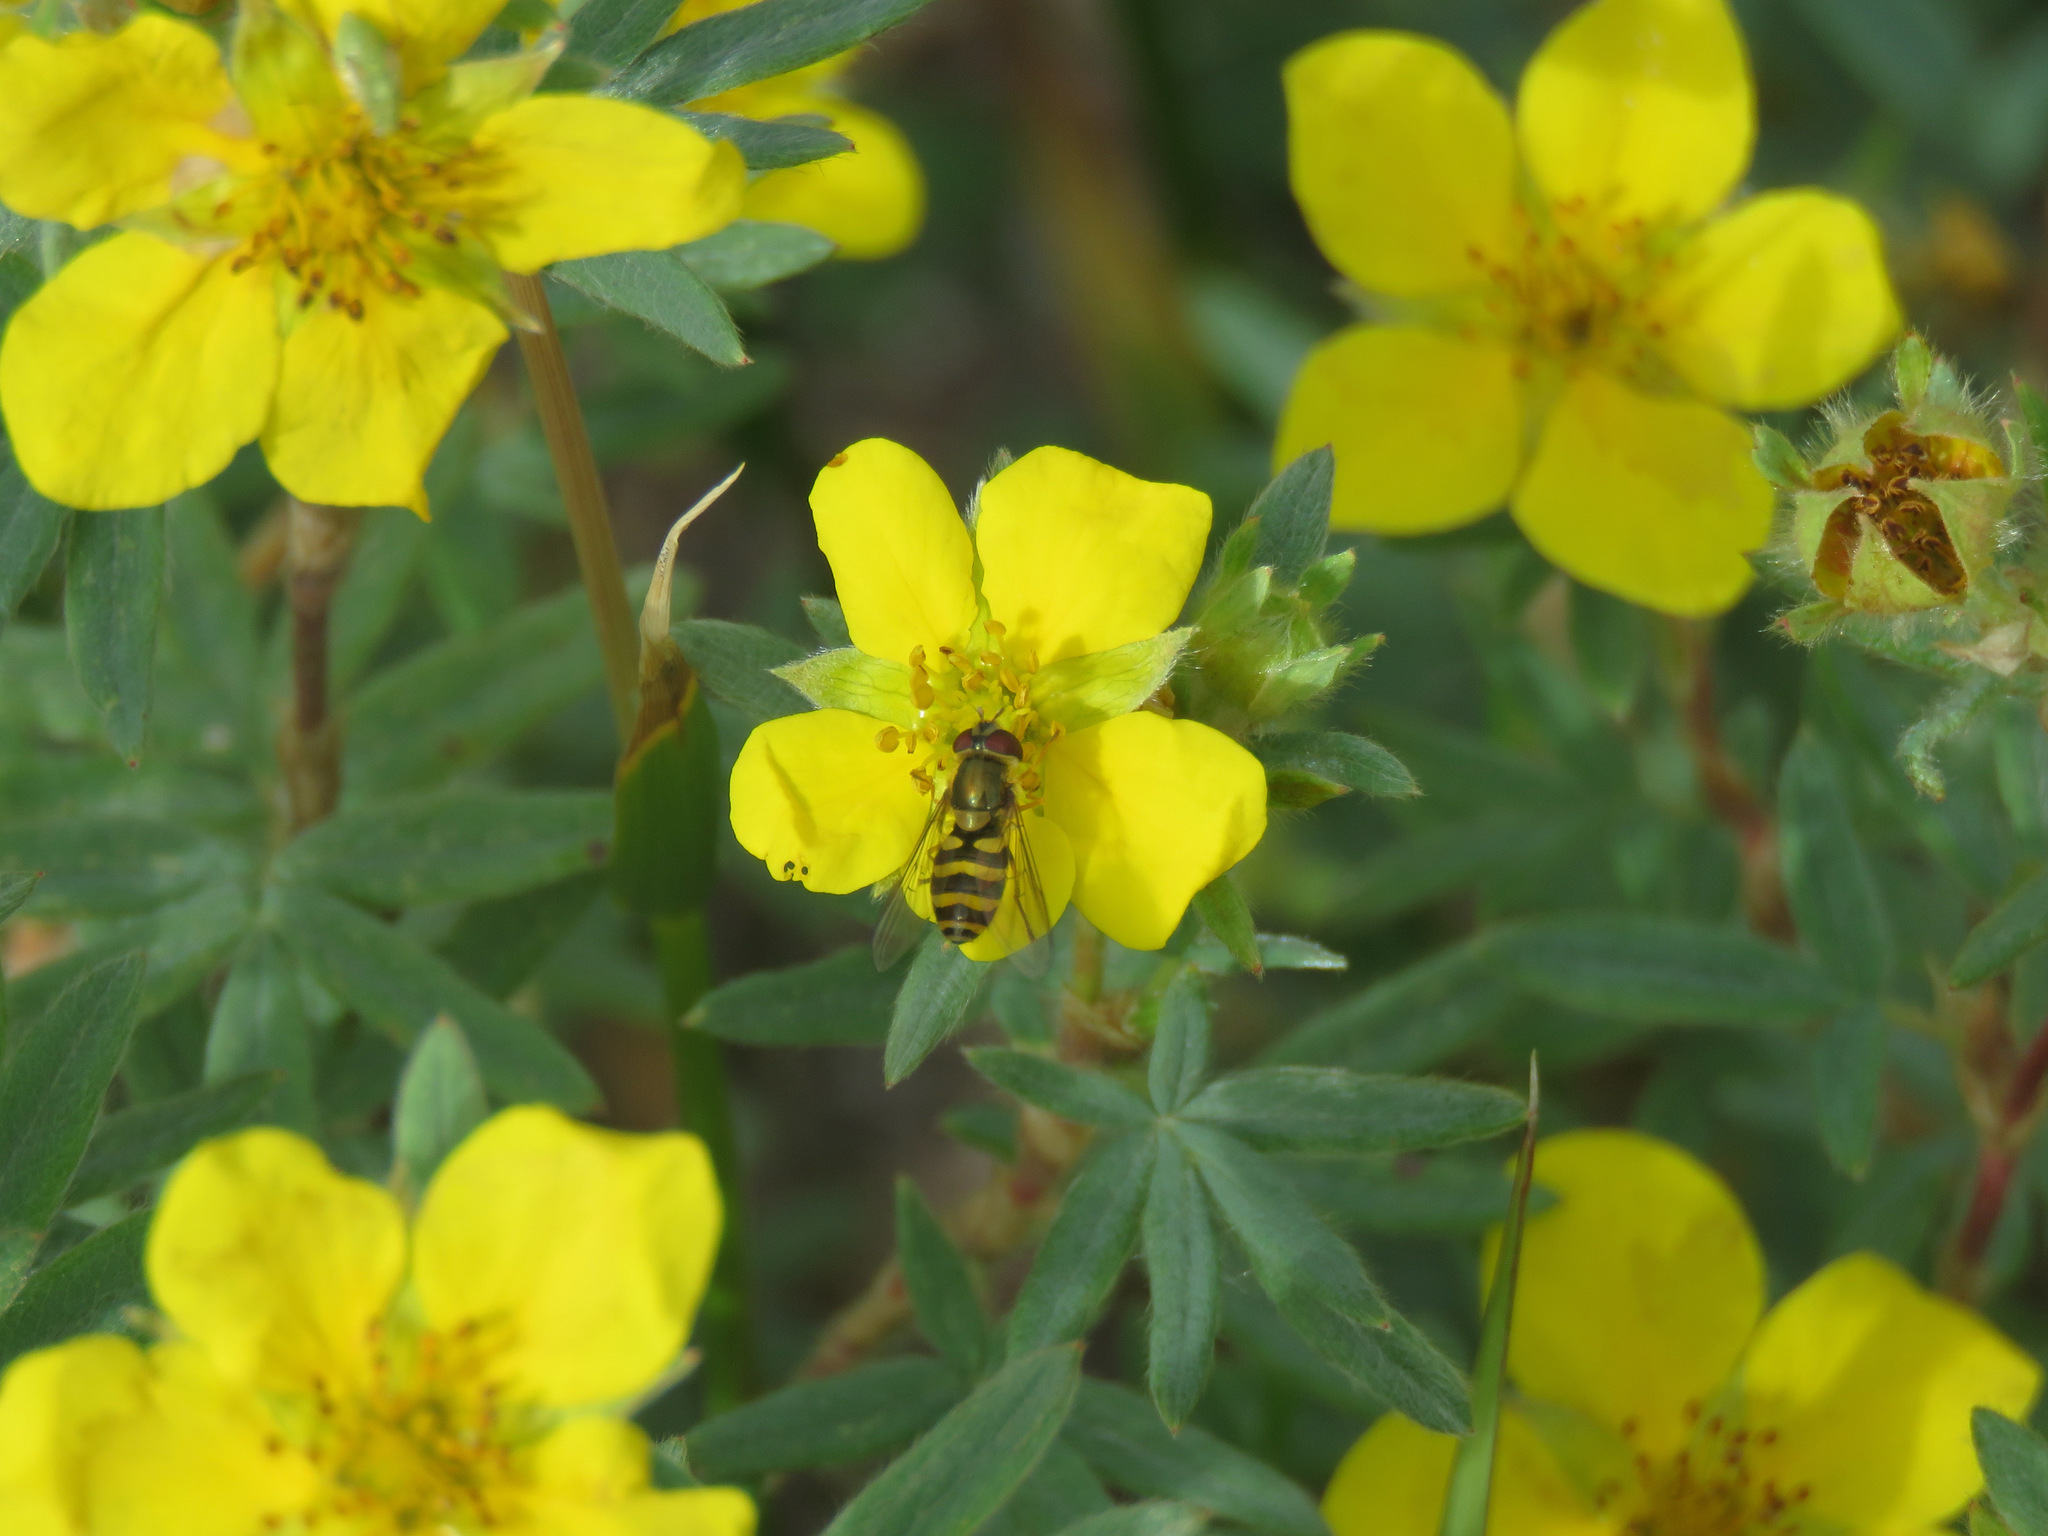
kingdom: Animalia
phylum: Arthropoda
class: Insecta
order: Diptera
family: Syrphidae
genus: Syrphus
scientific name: Syrphus
